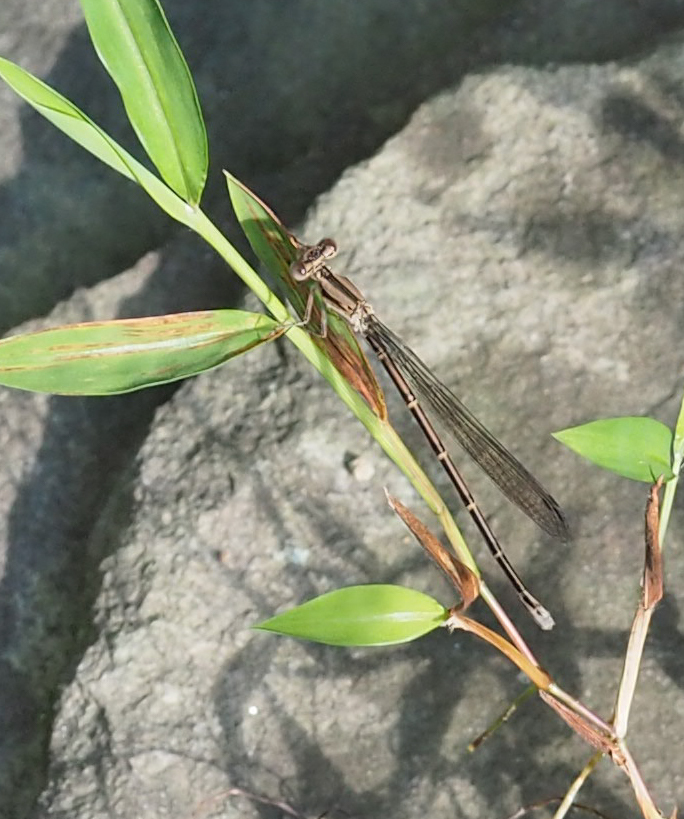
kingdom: Animalia
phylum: Arthropoda
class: Insecta
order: Odonata
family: Coenagrionidae
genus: Argia
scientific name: Argia fumipennis
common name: Variable dancer
